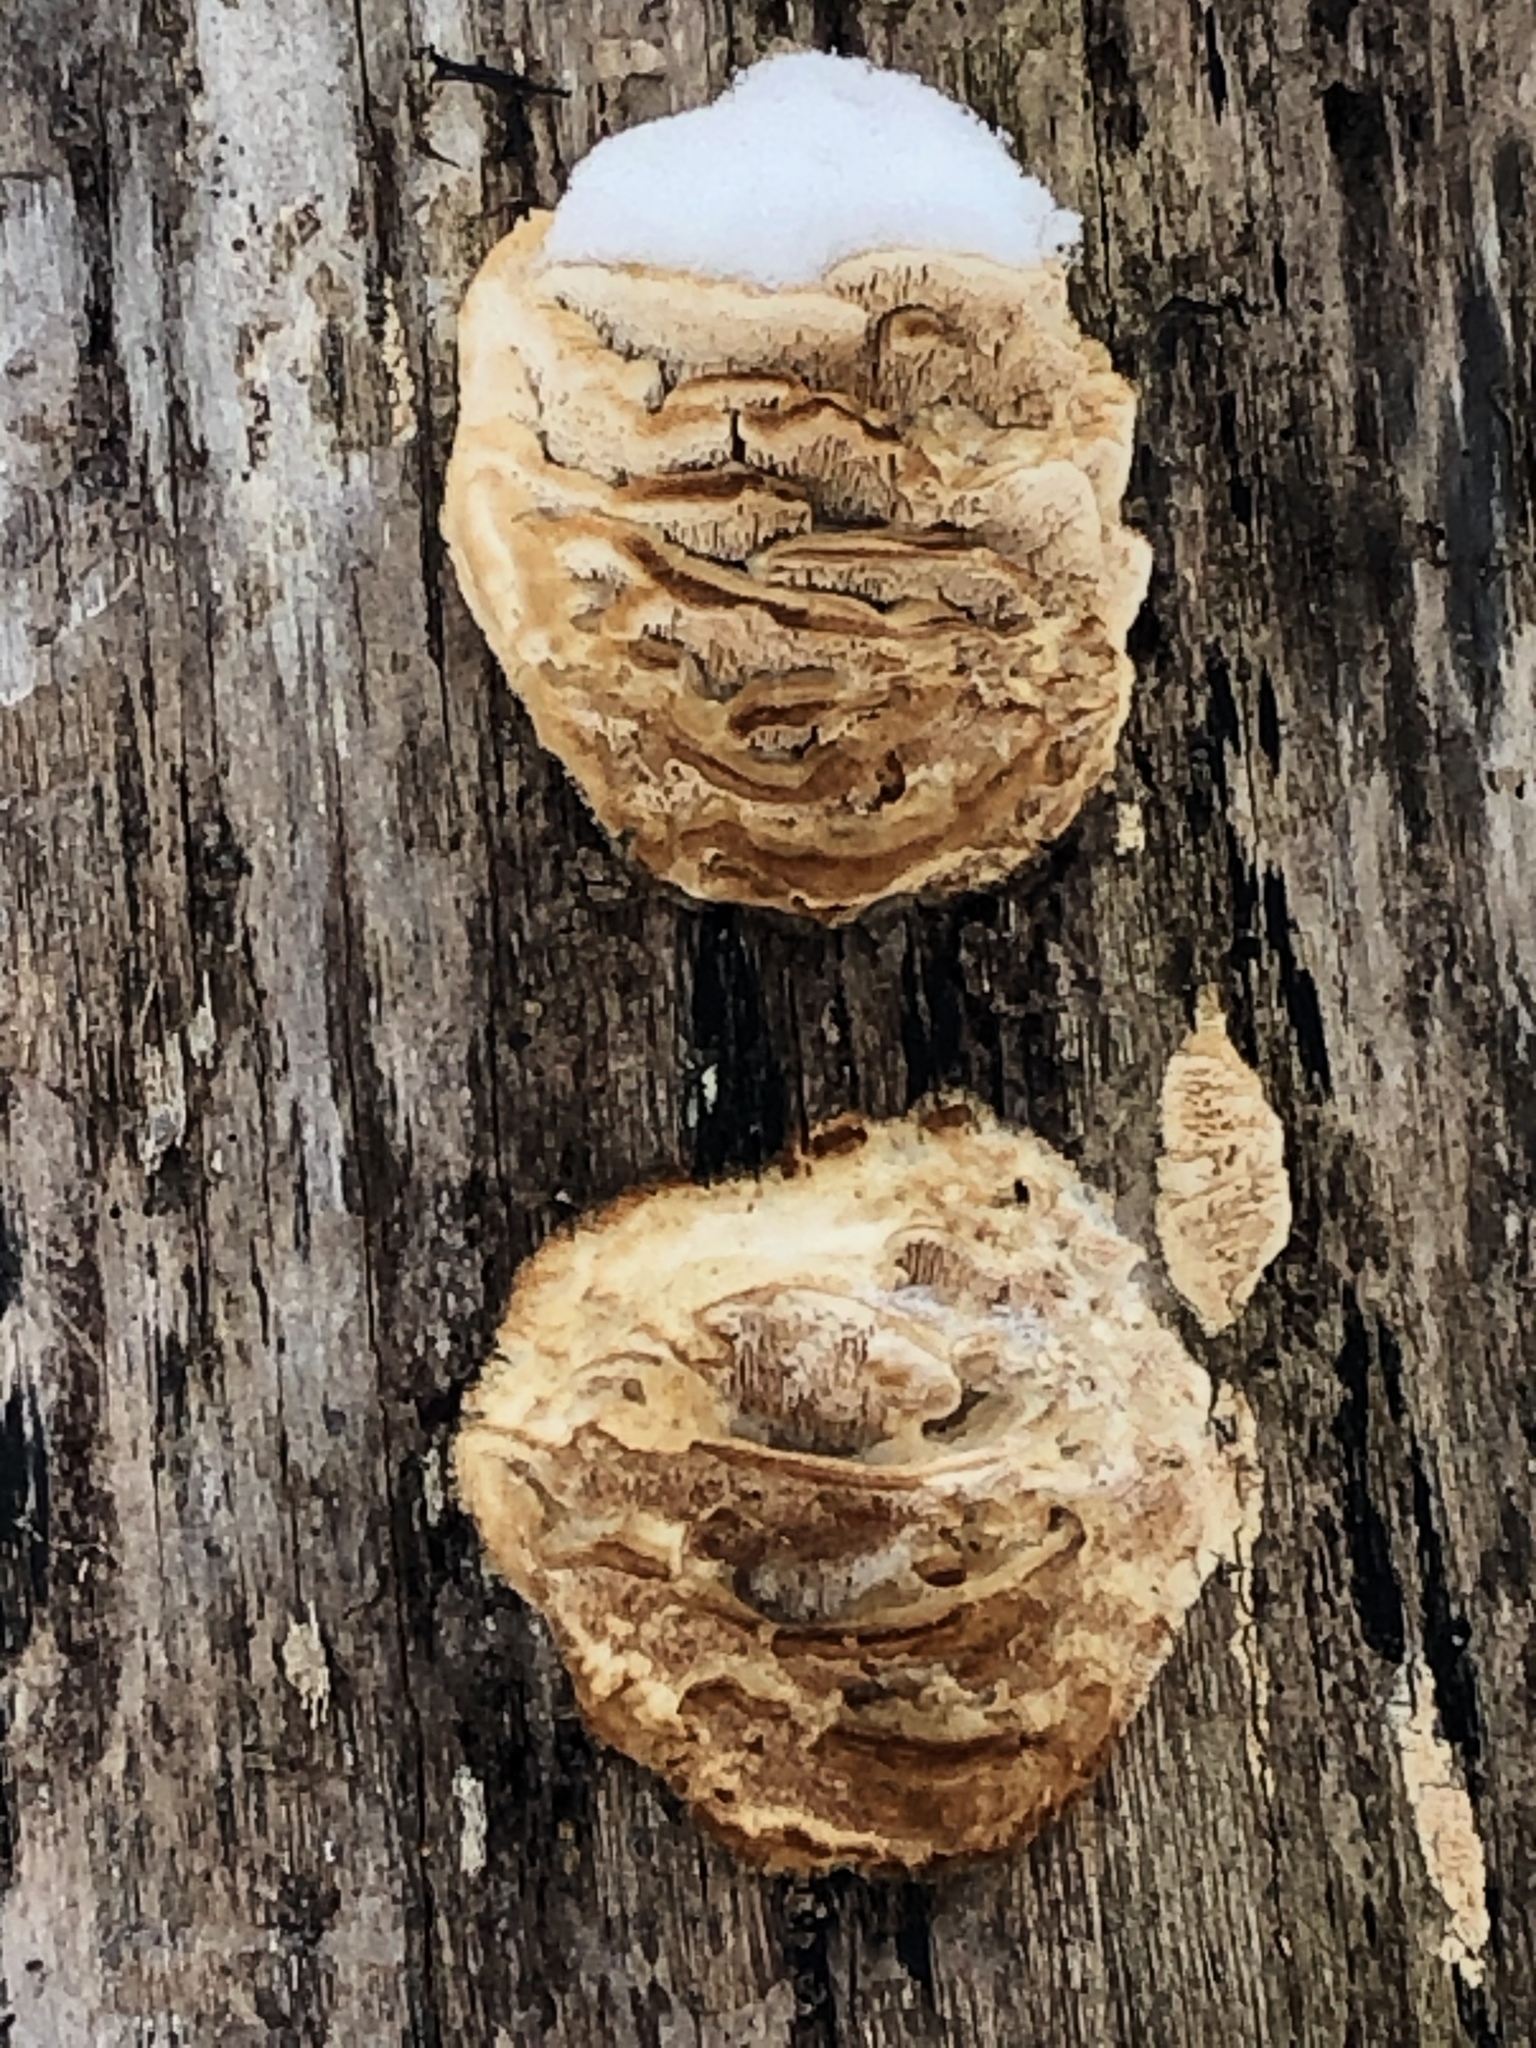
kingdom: Fungi
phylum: Basidiomycota
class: Agaricomycetes
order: Polyporales
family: Fomitopsidaceae
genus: Fomitopsis
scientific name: Fomitopsis
